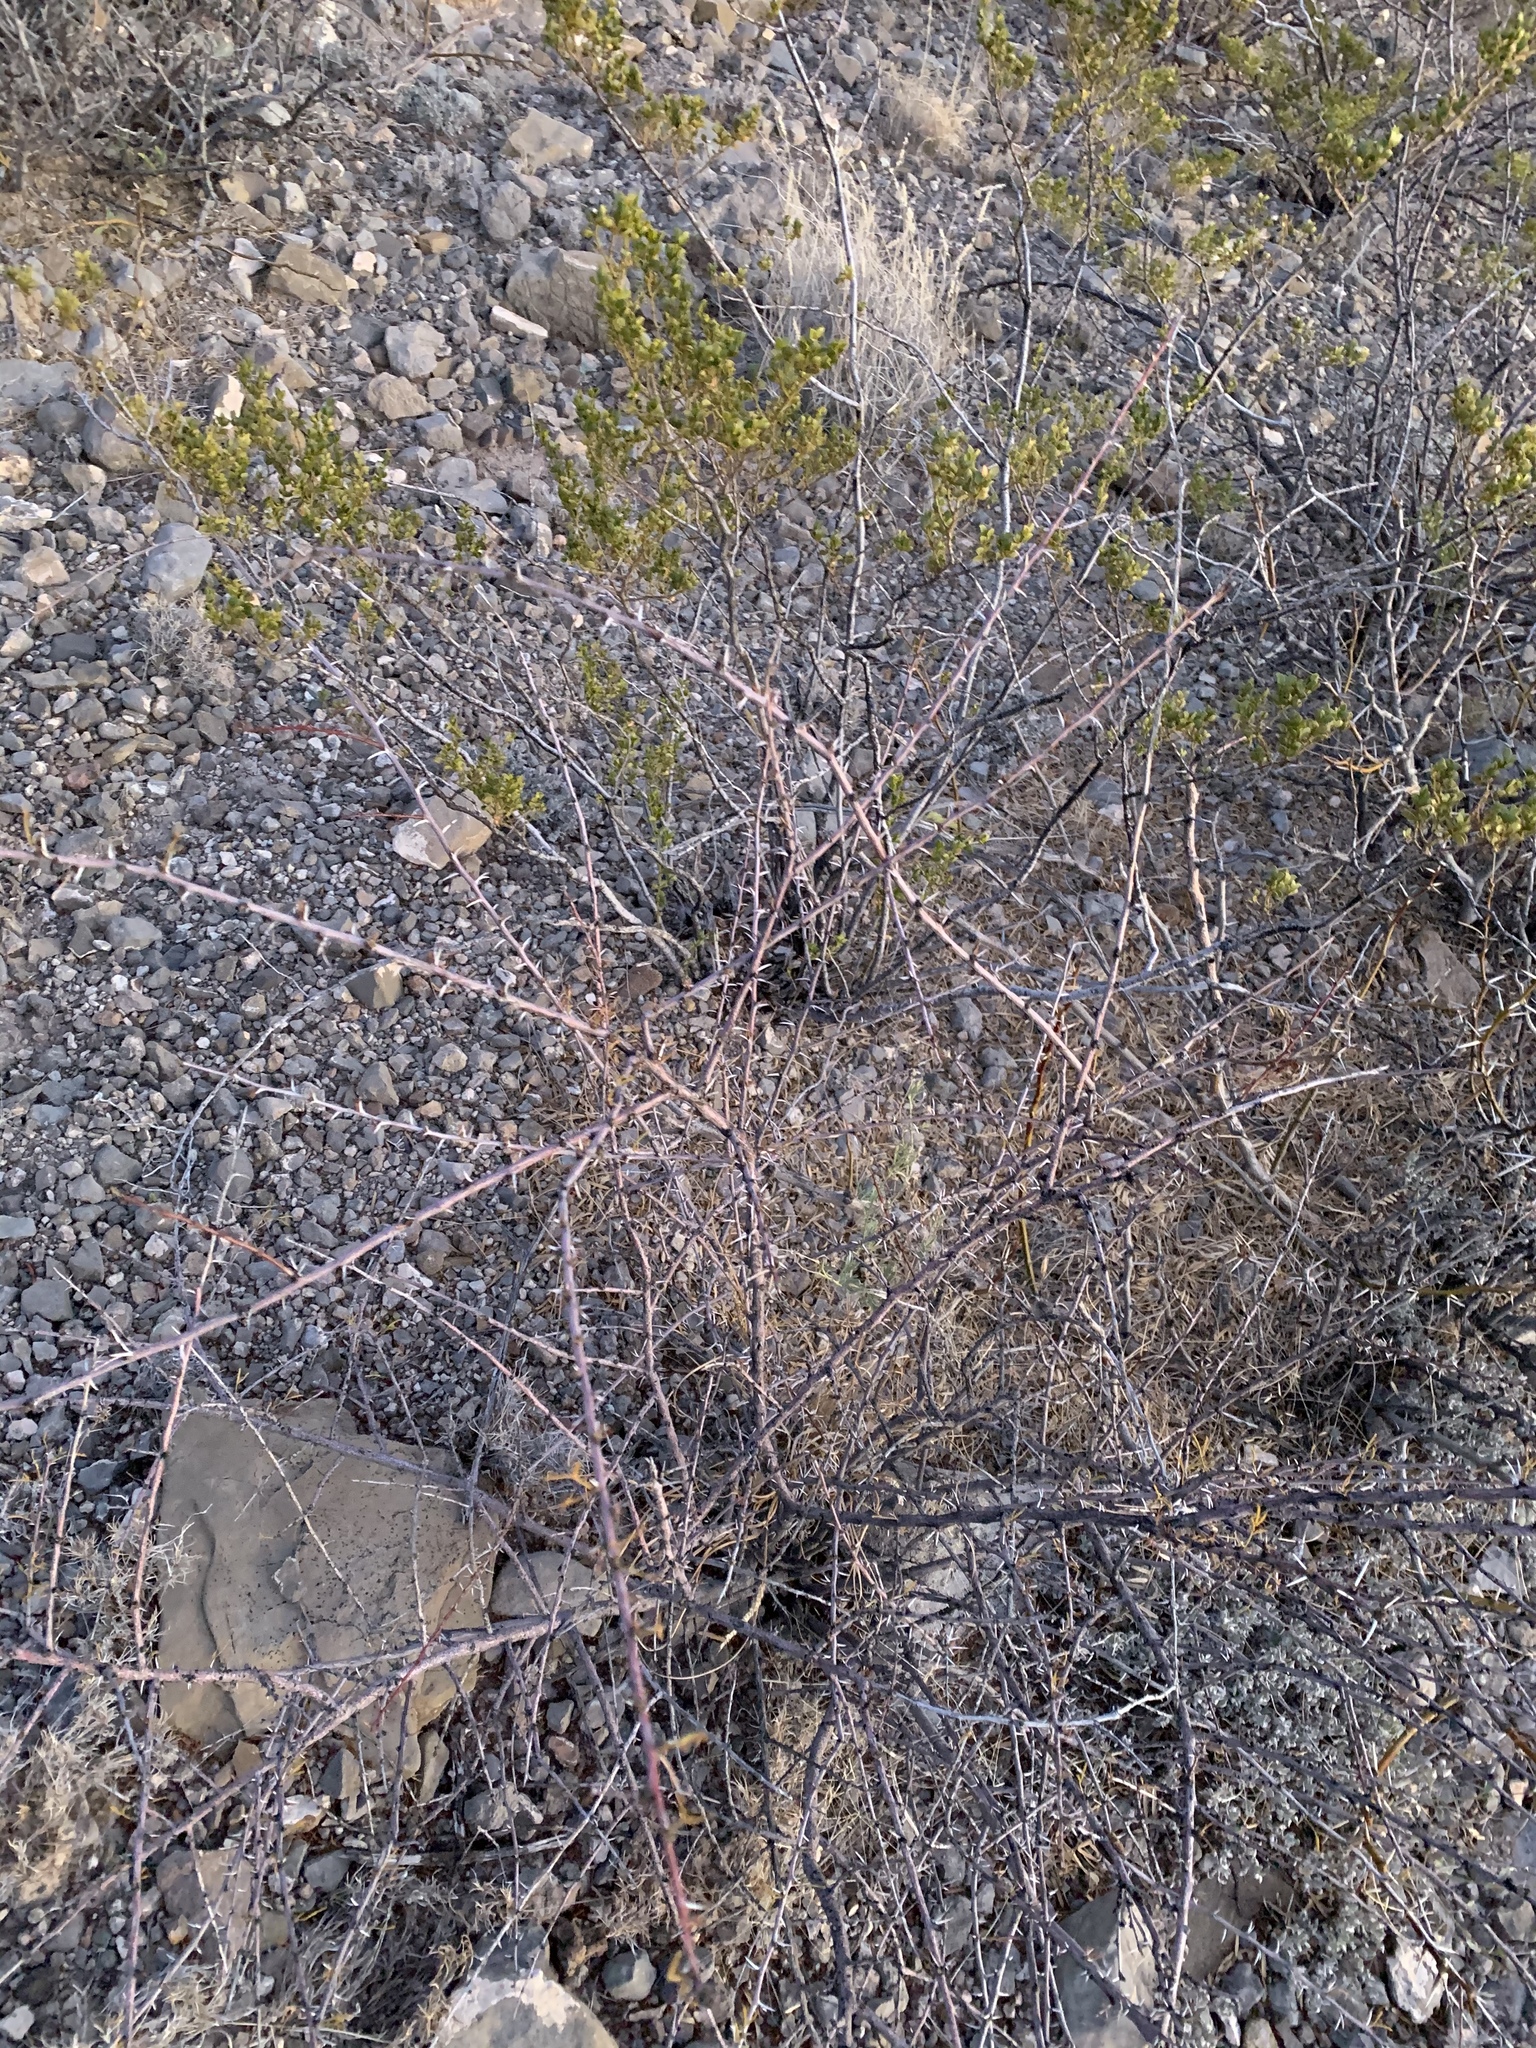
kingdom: Plantae
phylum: Tracheophyta
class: Magnoliopsida
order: Fabales
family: Fabaceae
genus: Vachellia
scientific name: Vachellia constricta
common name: Mescat acacia
